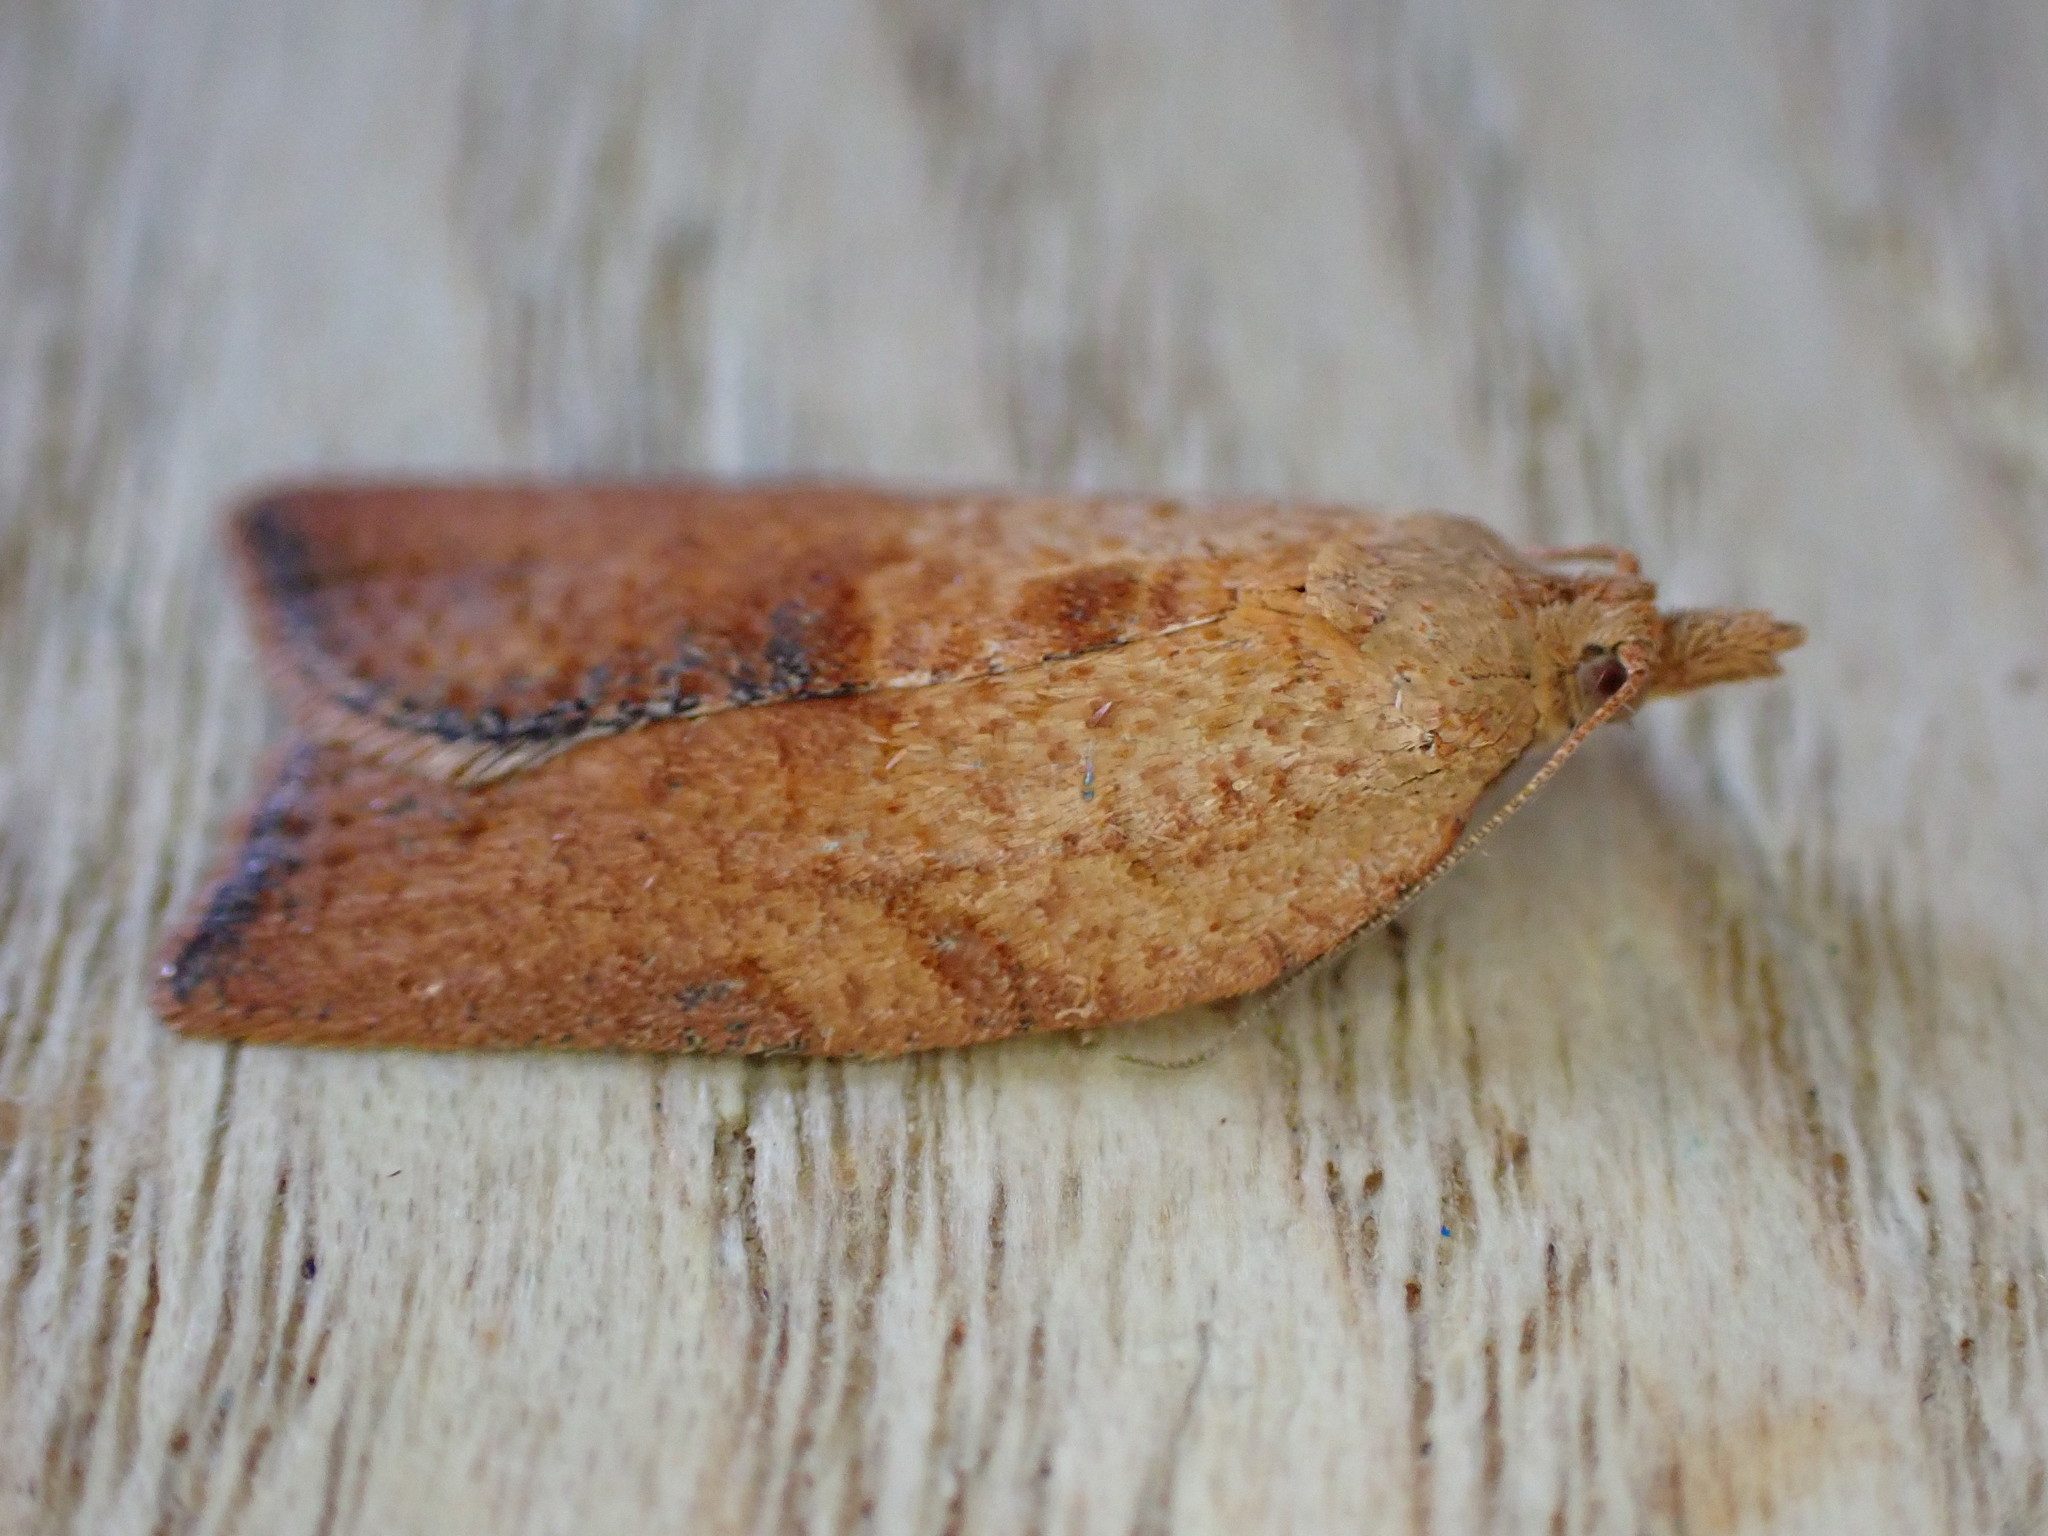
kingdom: Animalia
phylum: Arthropoda
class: Insecta
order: Lepidoptera
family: Tortricidae
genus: Epiphyas
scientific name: Epiphyas postvittana
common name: Light brown apple moth
